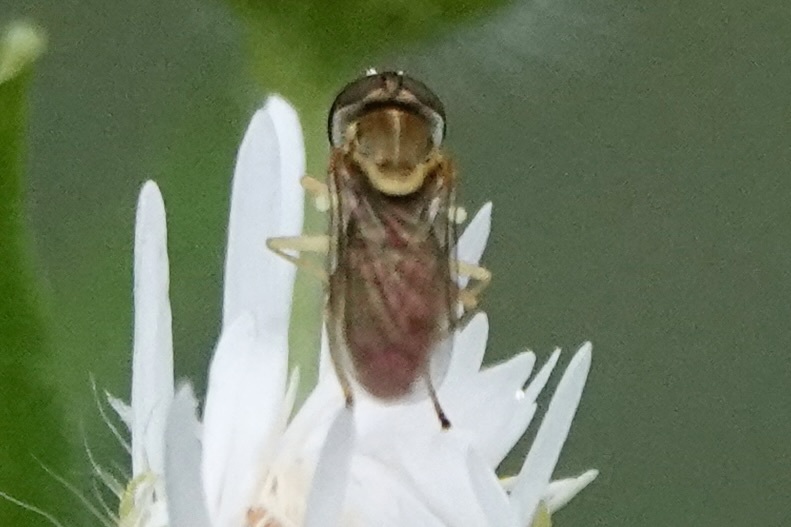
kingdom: Animalia
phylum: Arthropoda
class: Insecta
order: Diptera
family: Syrphidae
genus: Toxomerus
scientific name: Toxomerus marginatus
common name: Syrphid fly
